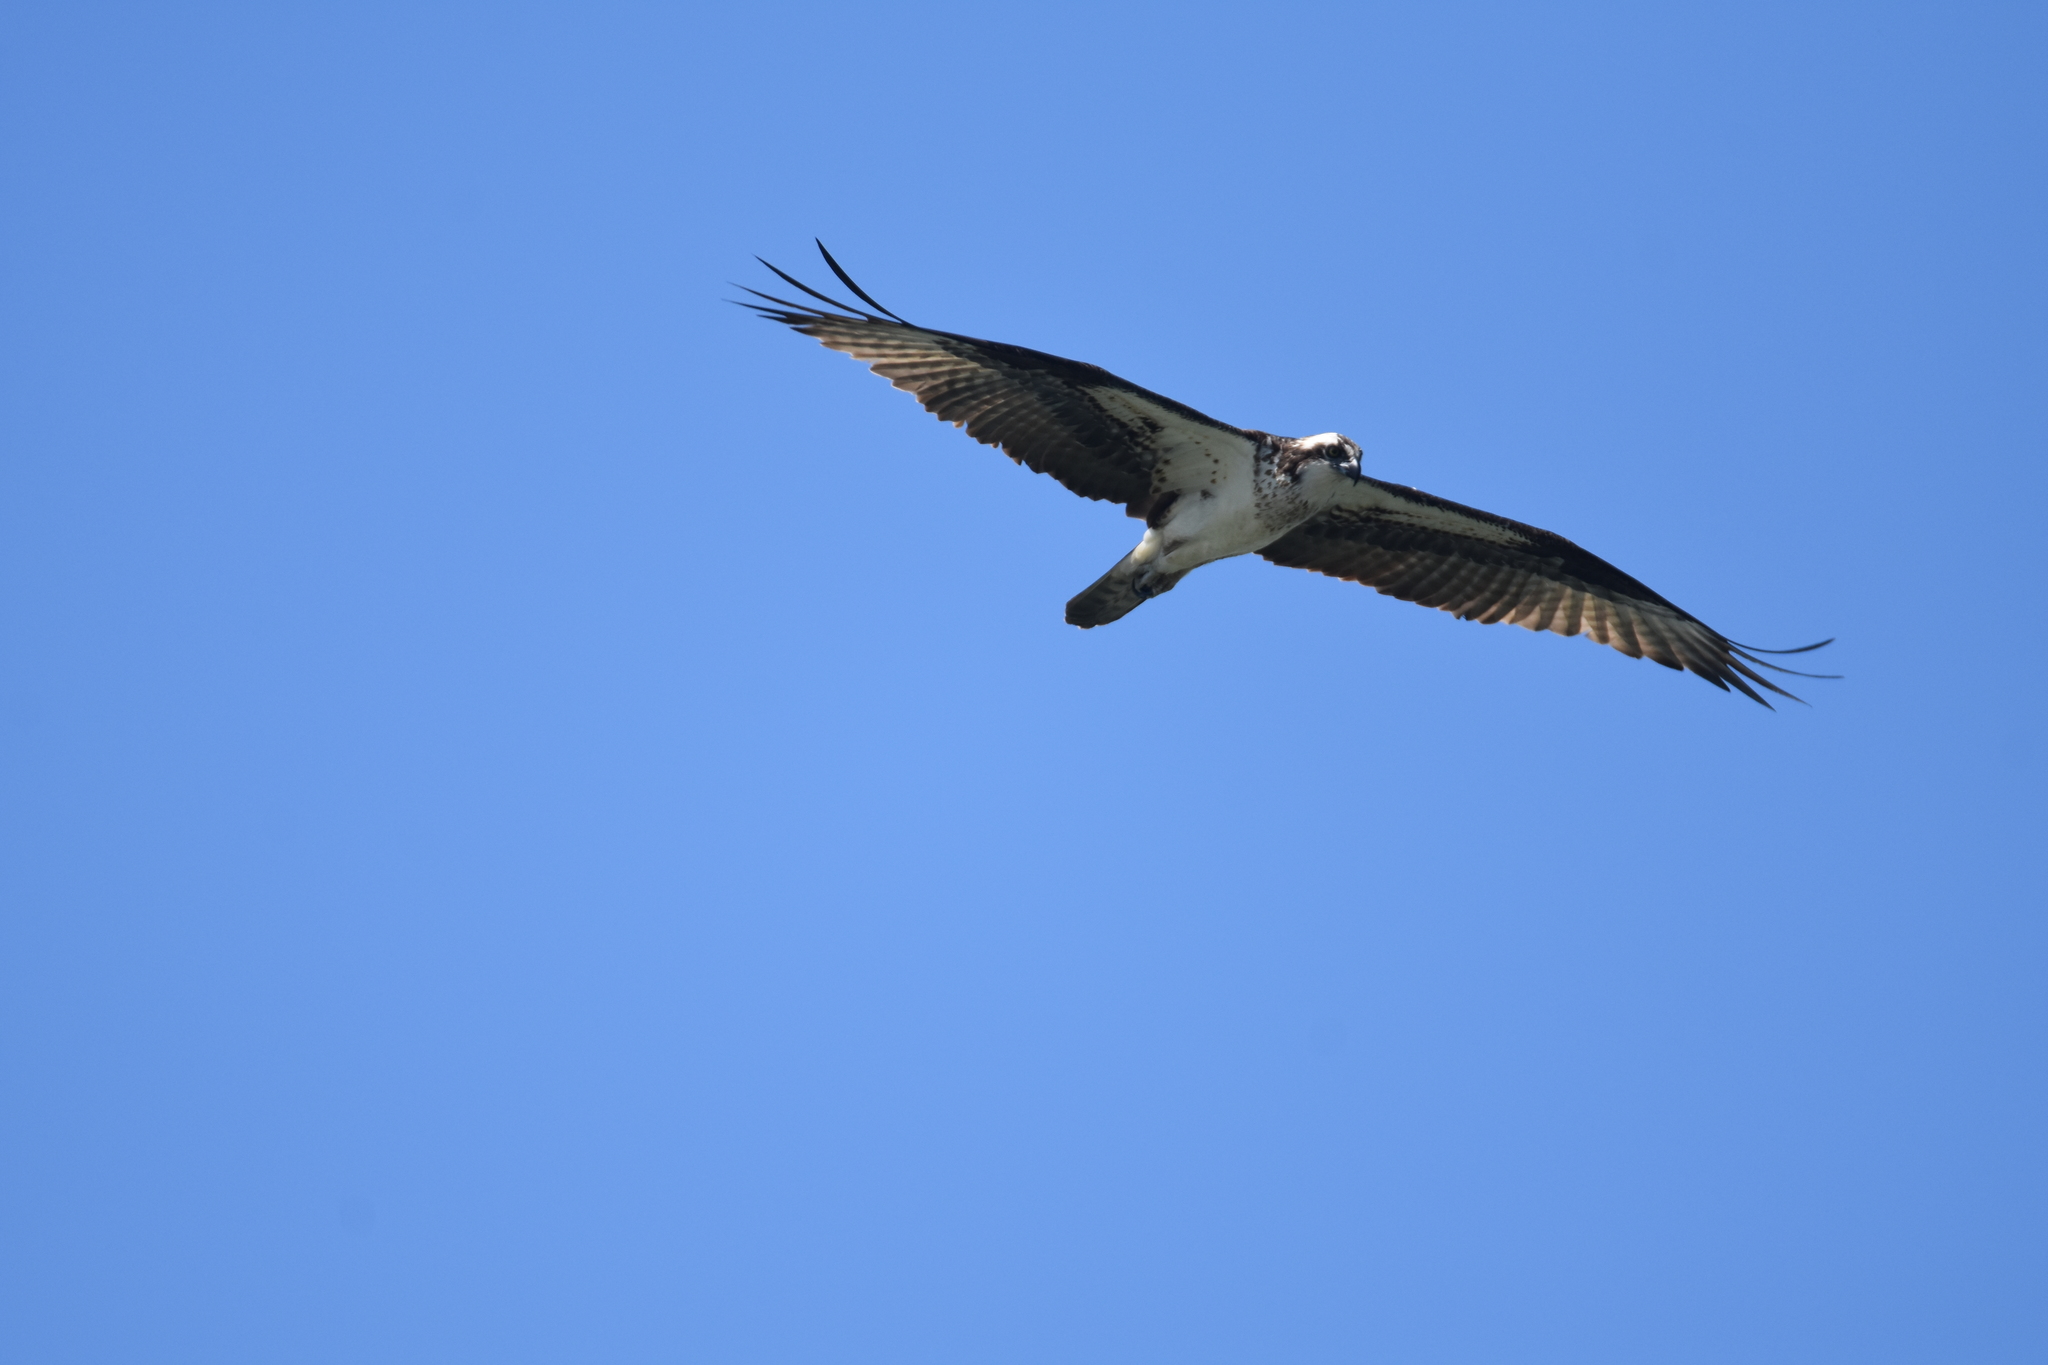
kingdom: Animalia
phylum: Chordata
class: Aves
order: Accipitriformes
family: Pandionidae
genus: Pandion
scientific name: Pandion haliaetus
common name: Osprey
